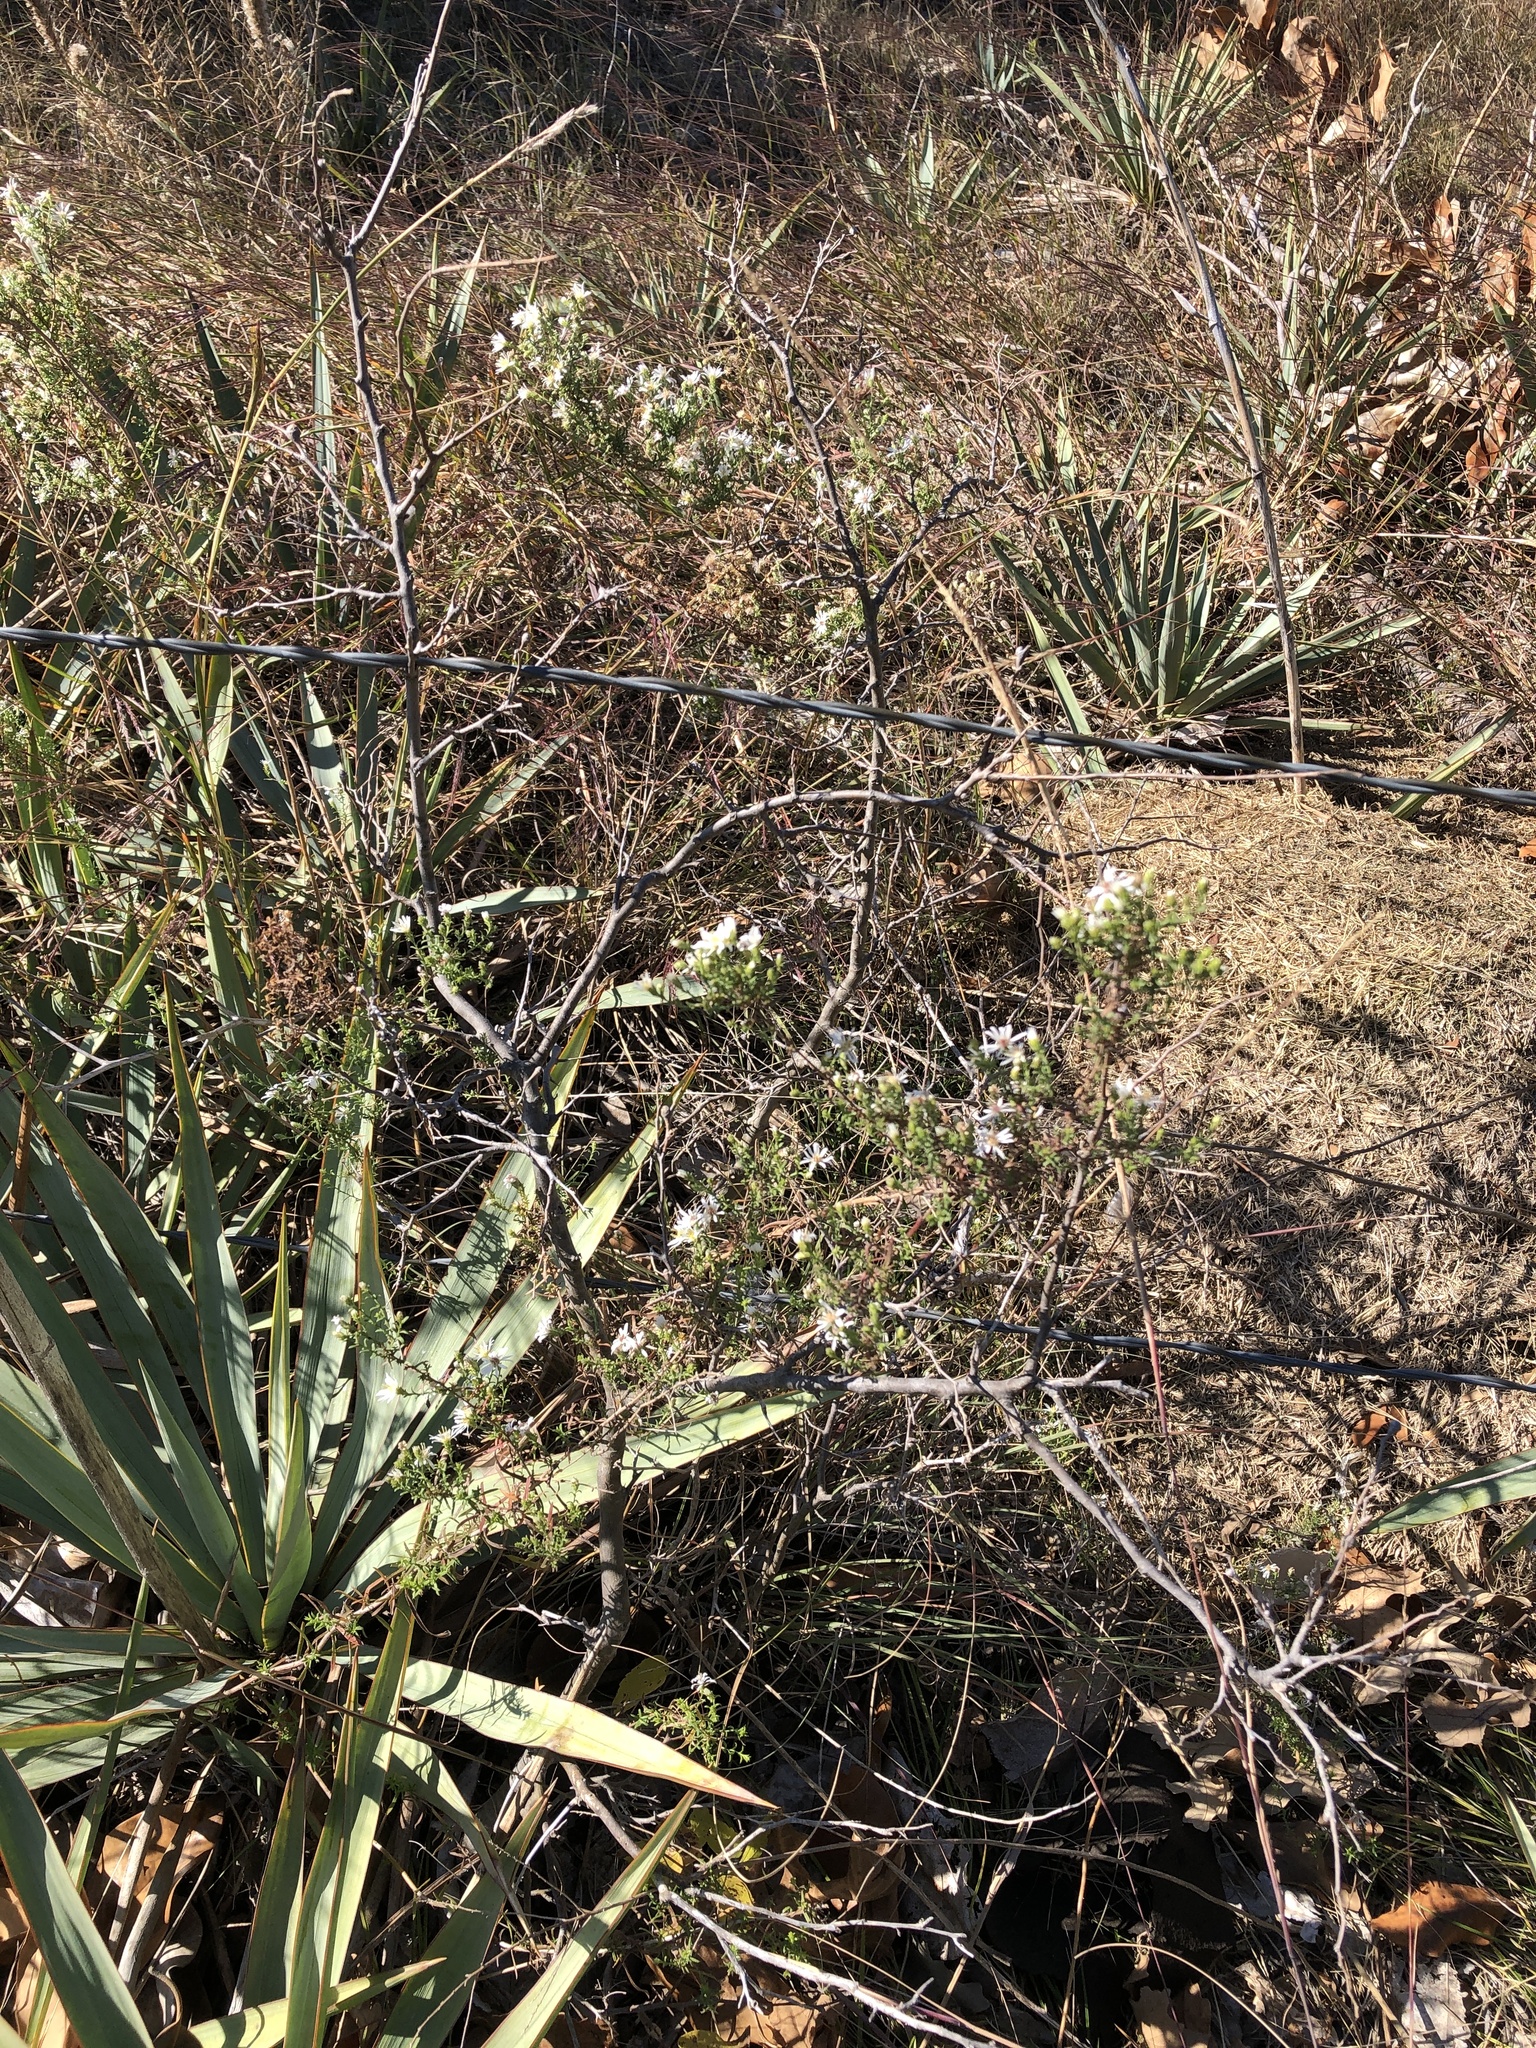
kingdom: Plantae
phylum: Tracheophyta
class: Magnoliopsida
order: Asterales
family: Asteraceae
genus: Symphyotrichum
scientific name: Symphyotrichum ericoides
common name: Heath aster
